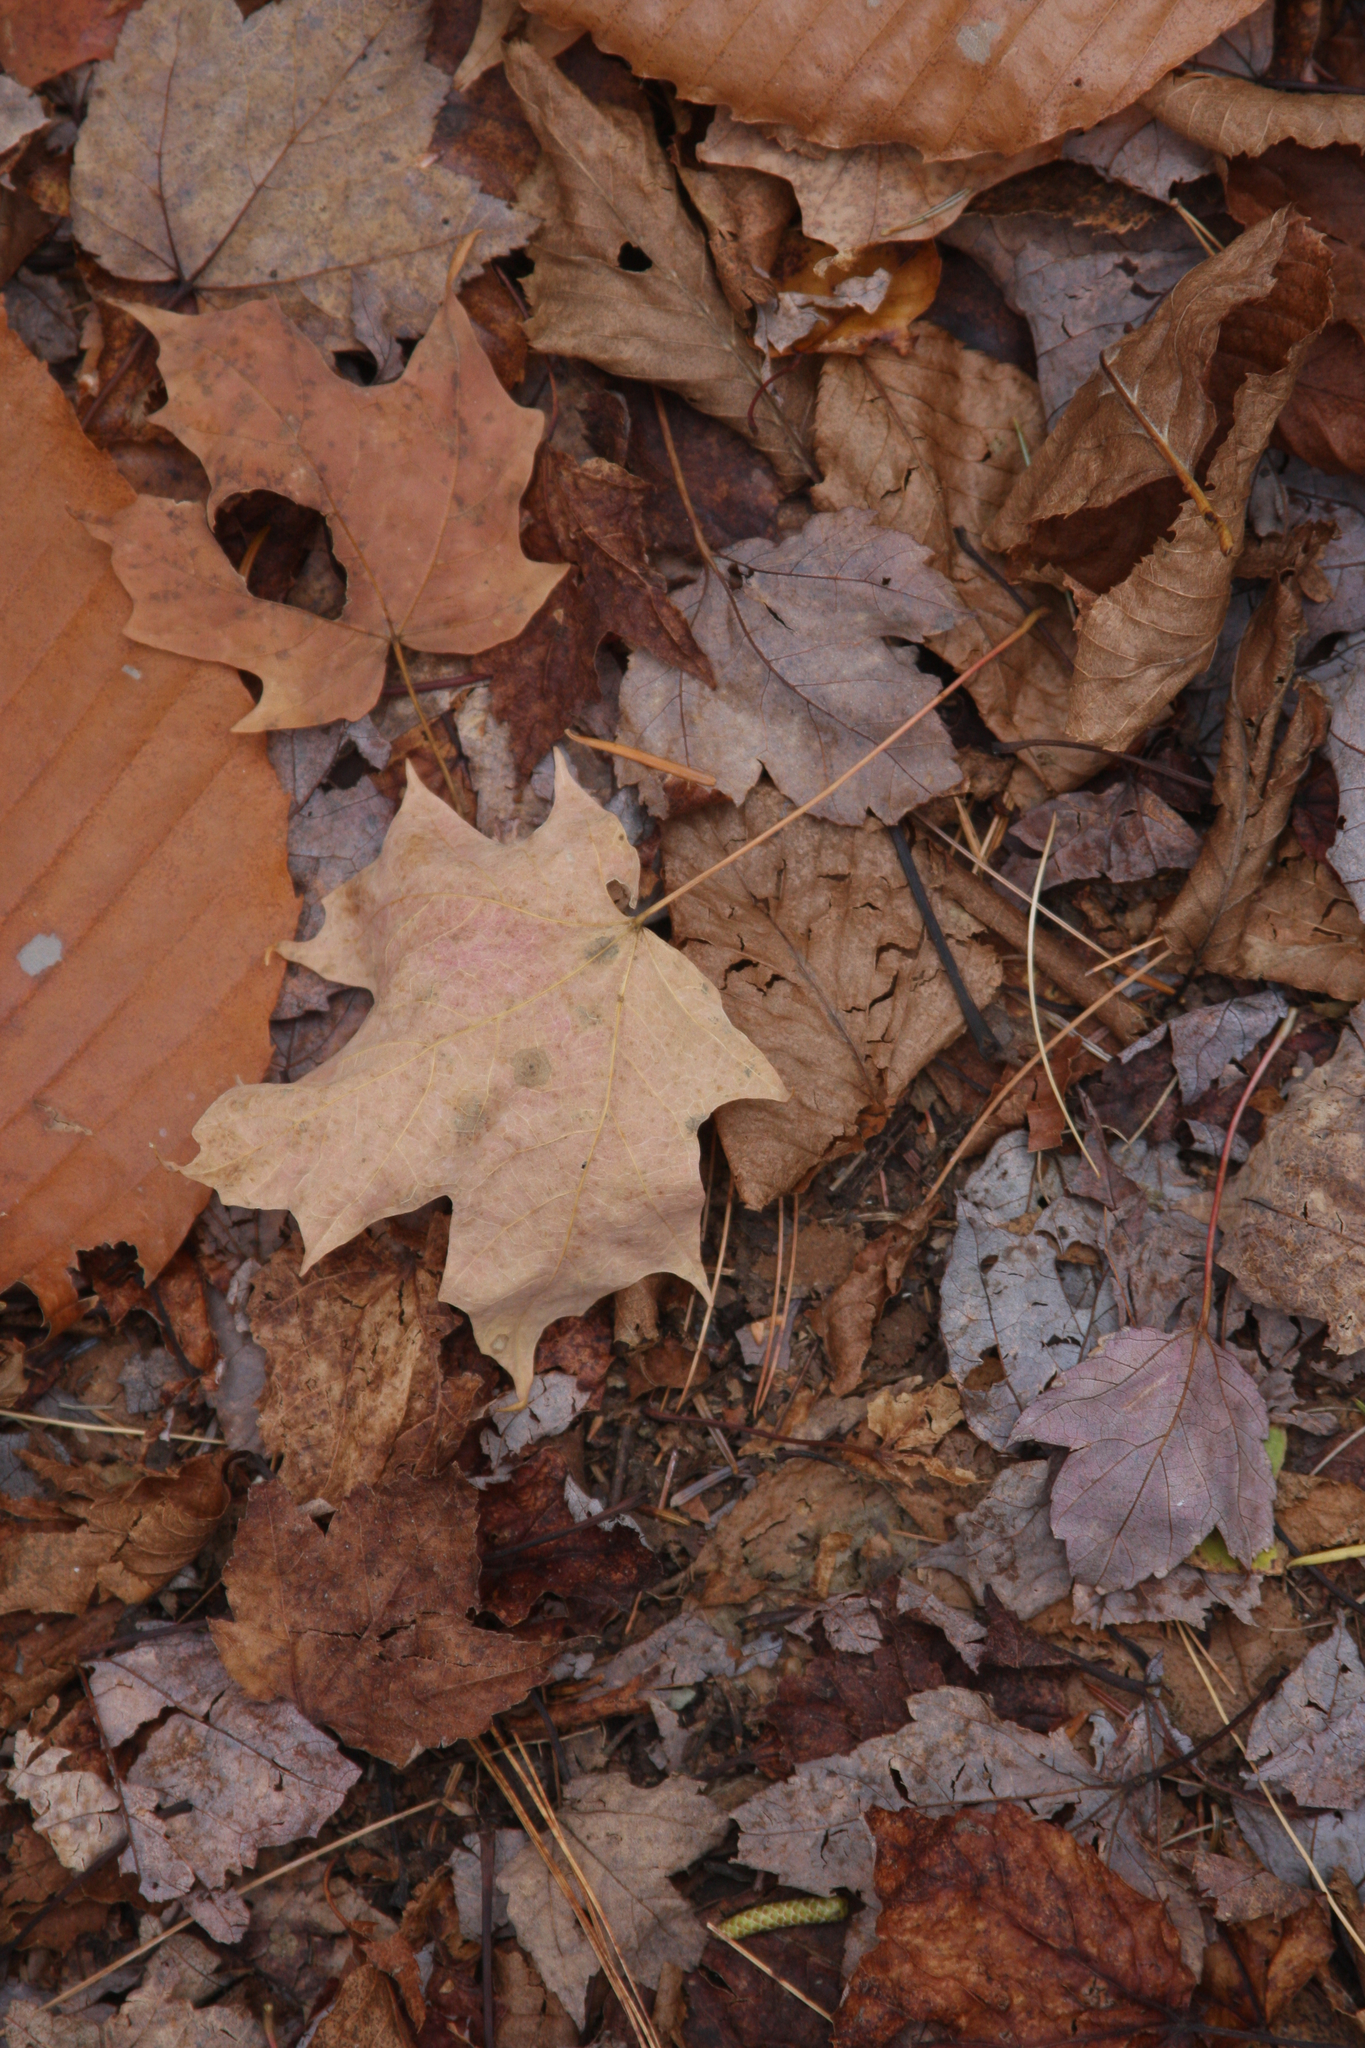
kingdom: Plantae
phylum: Tracheophyta
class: Magnoliopsida
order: Sapindales
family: Sapindaceae
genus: Acer
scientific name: Acer saccharum
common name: Sugar maple
